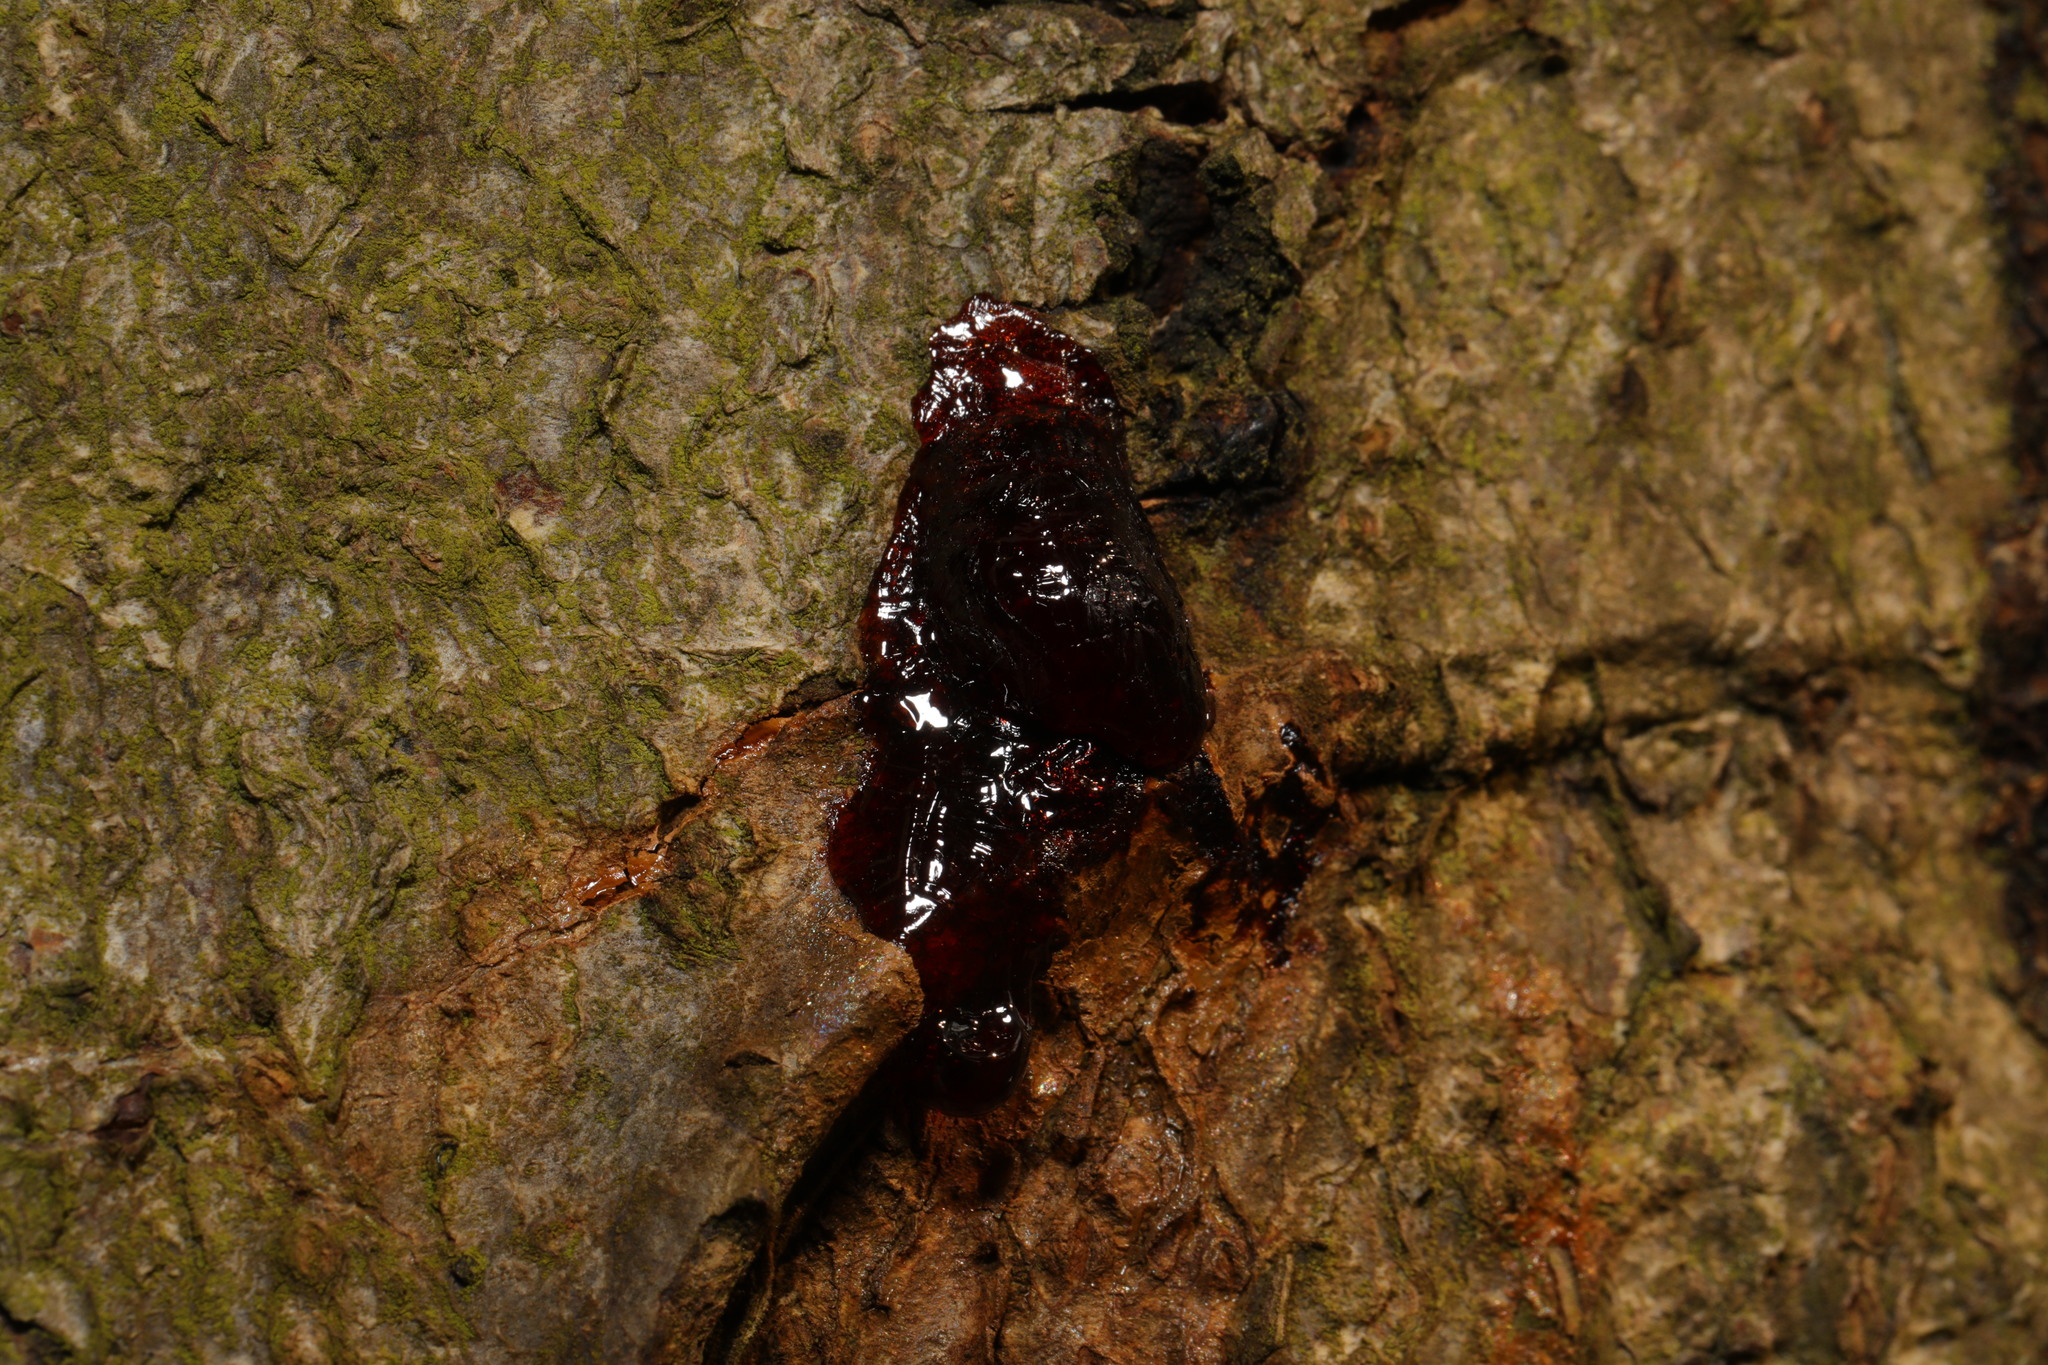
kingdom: Bacteria
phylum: Proteobacteria
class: Gammaproteobacteria
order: Pseudomonadales
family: Pseudomonadaceae
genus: Pseudomonas
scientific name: Pseudomonas syringae
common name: Bacterial speck
